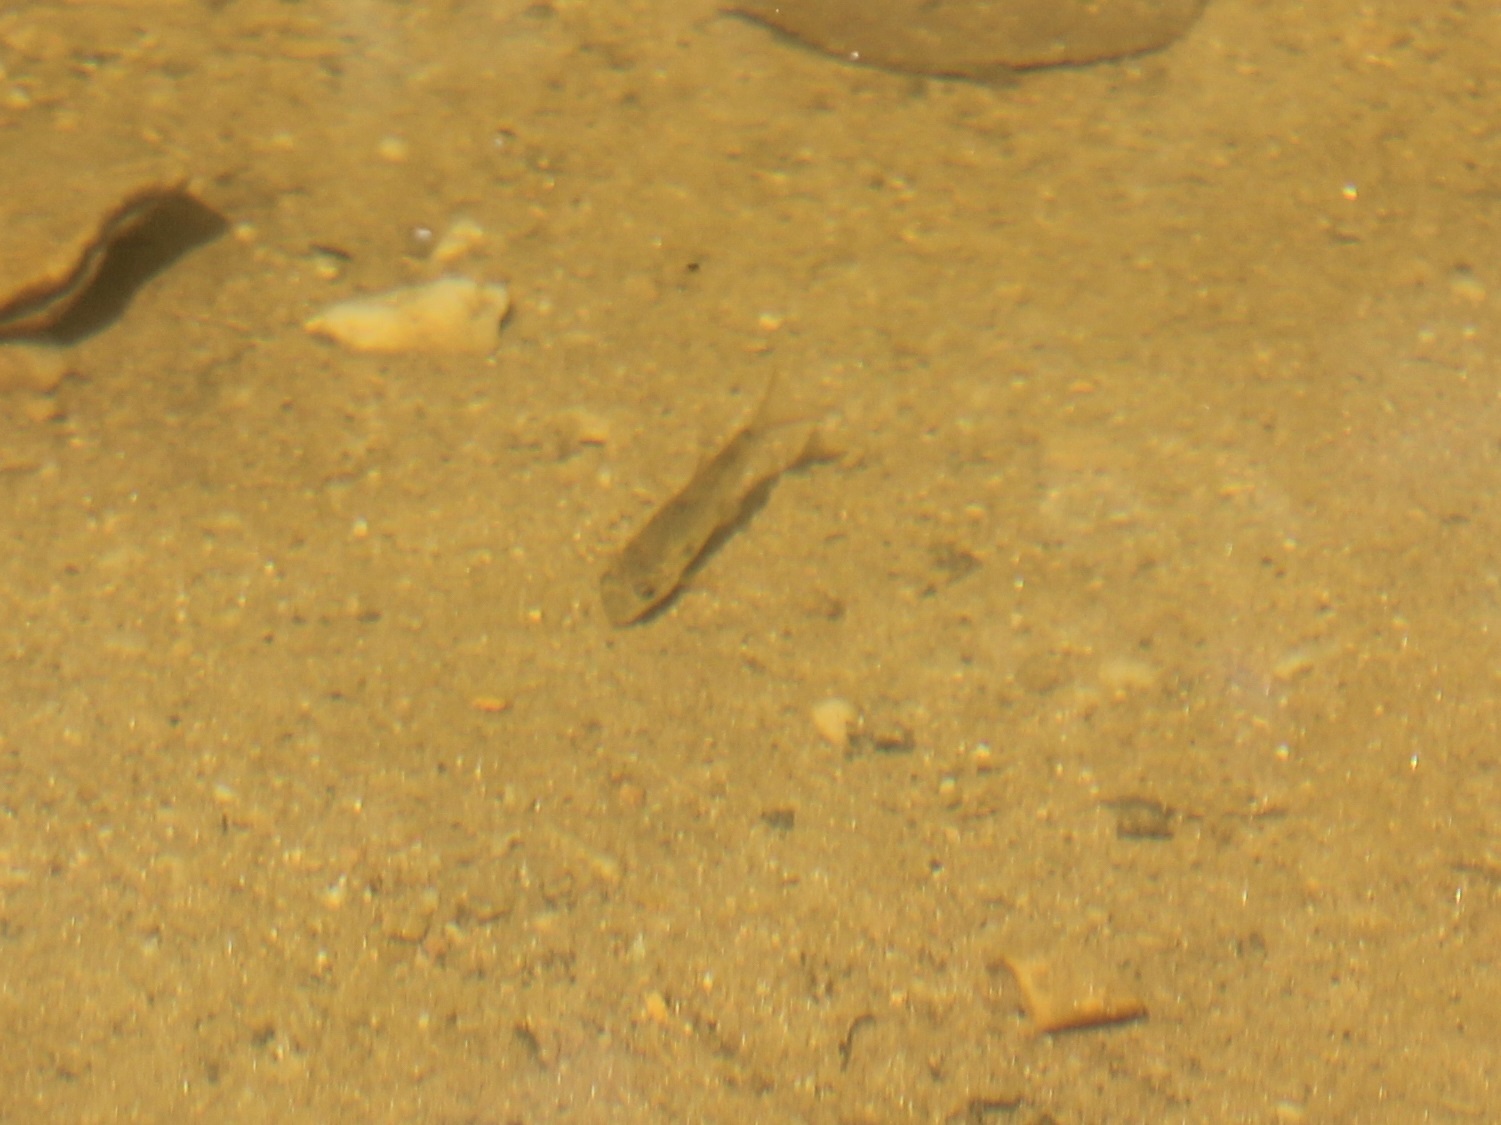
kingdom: Animalia
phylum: Chordata
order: Cypriniformes
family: Catostomidae
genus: Catostomus
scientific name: Catostomus commersonii
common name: White sucker
